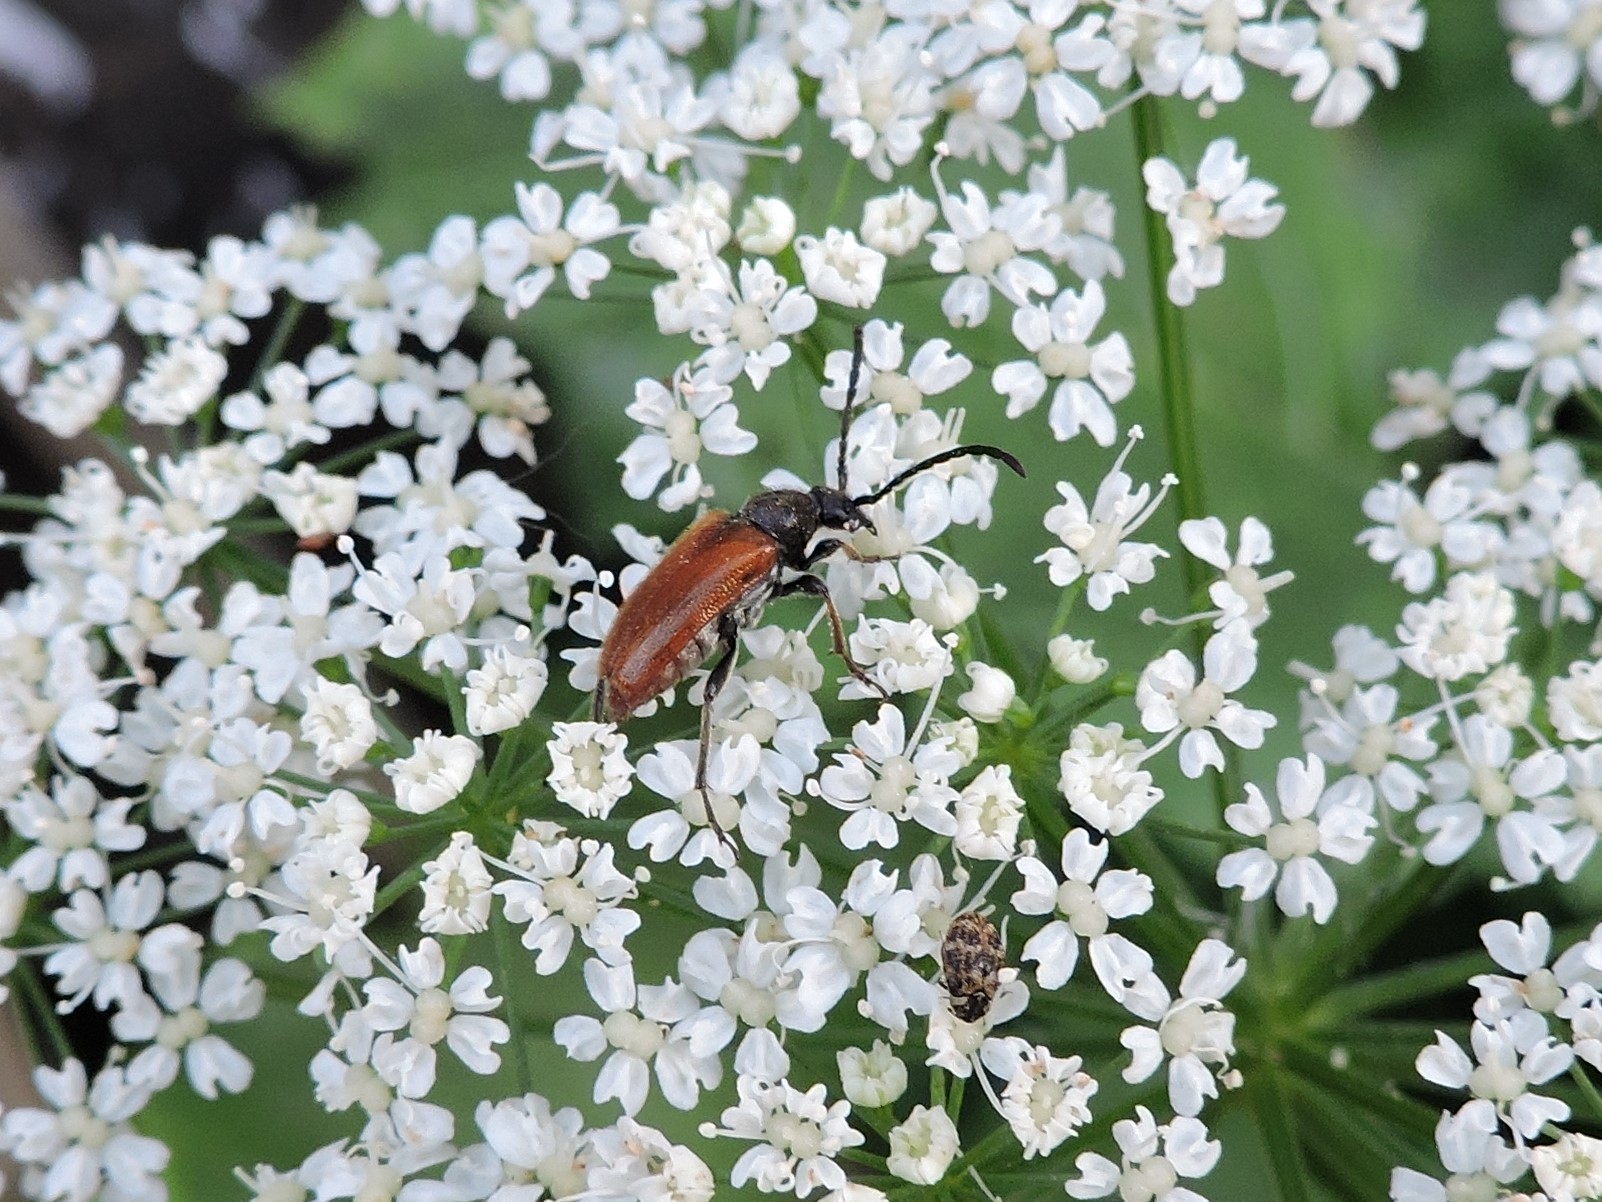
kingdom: Animalia
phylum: Arthropoda
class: Insecta
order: Coleoptera
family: Cerambycidae
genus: Pseudovadonia
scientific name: Pseudovadonia livida
